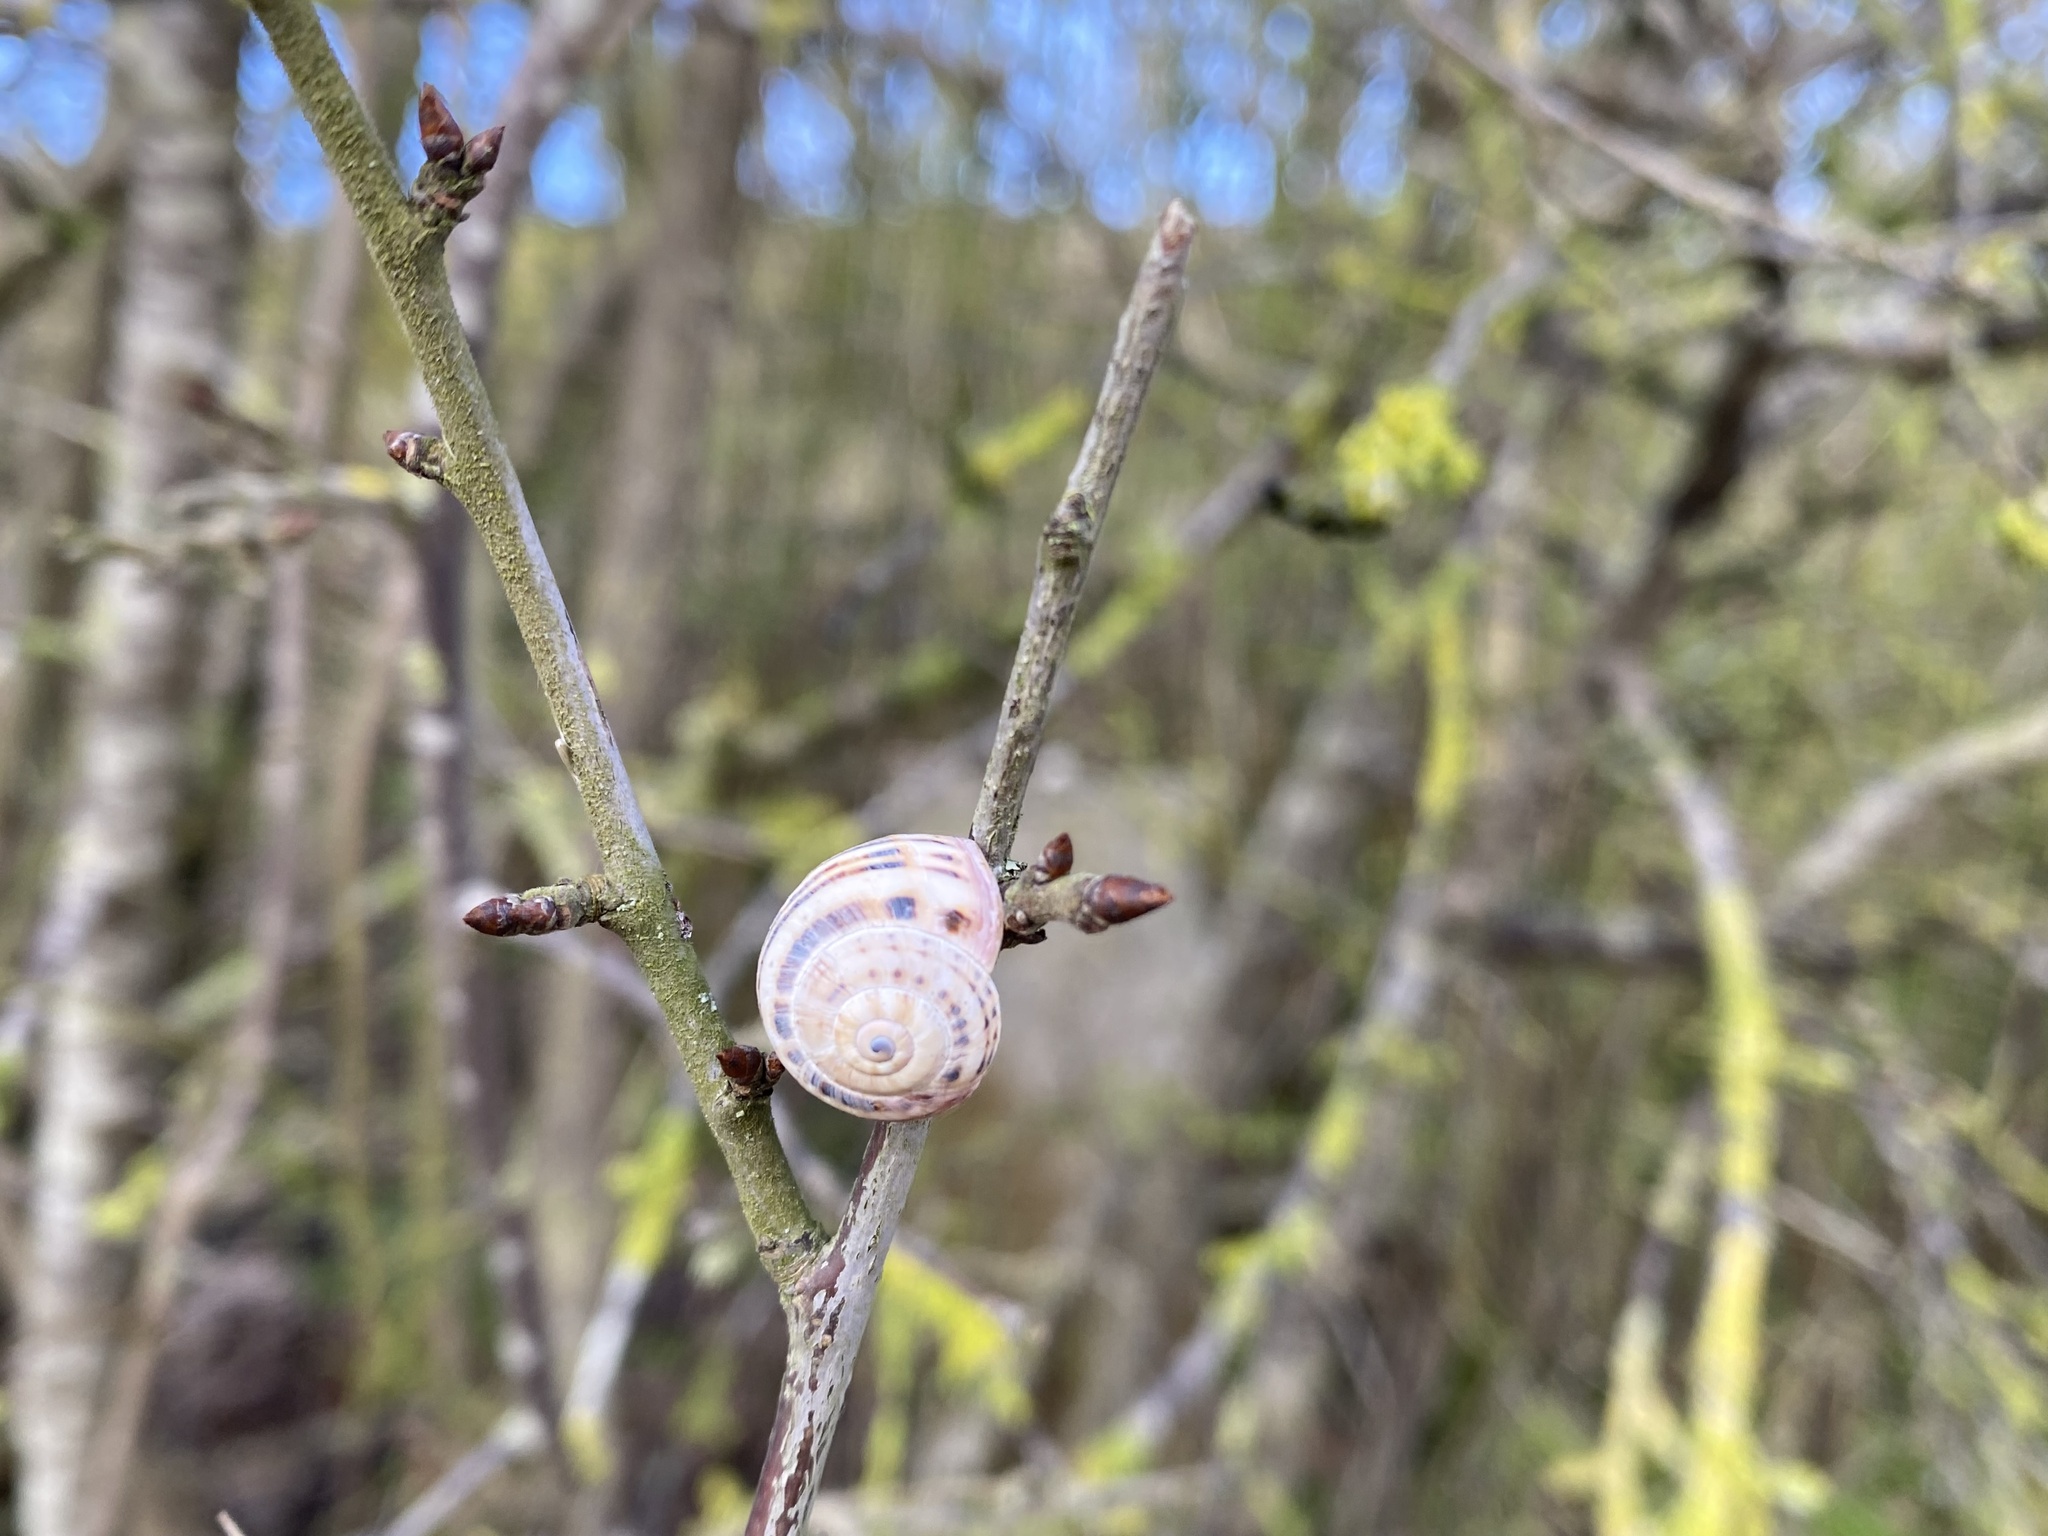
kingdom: Animalia
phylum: Mollusca
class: Gastropoda
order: Stylommatophora
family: Helicidae
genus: Theba
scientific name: Theba pisana
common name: White snail
